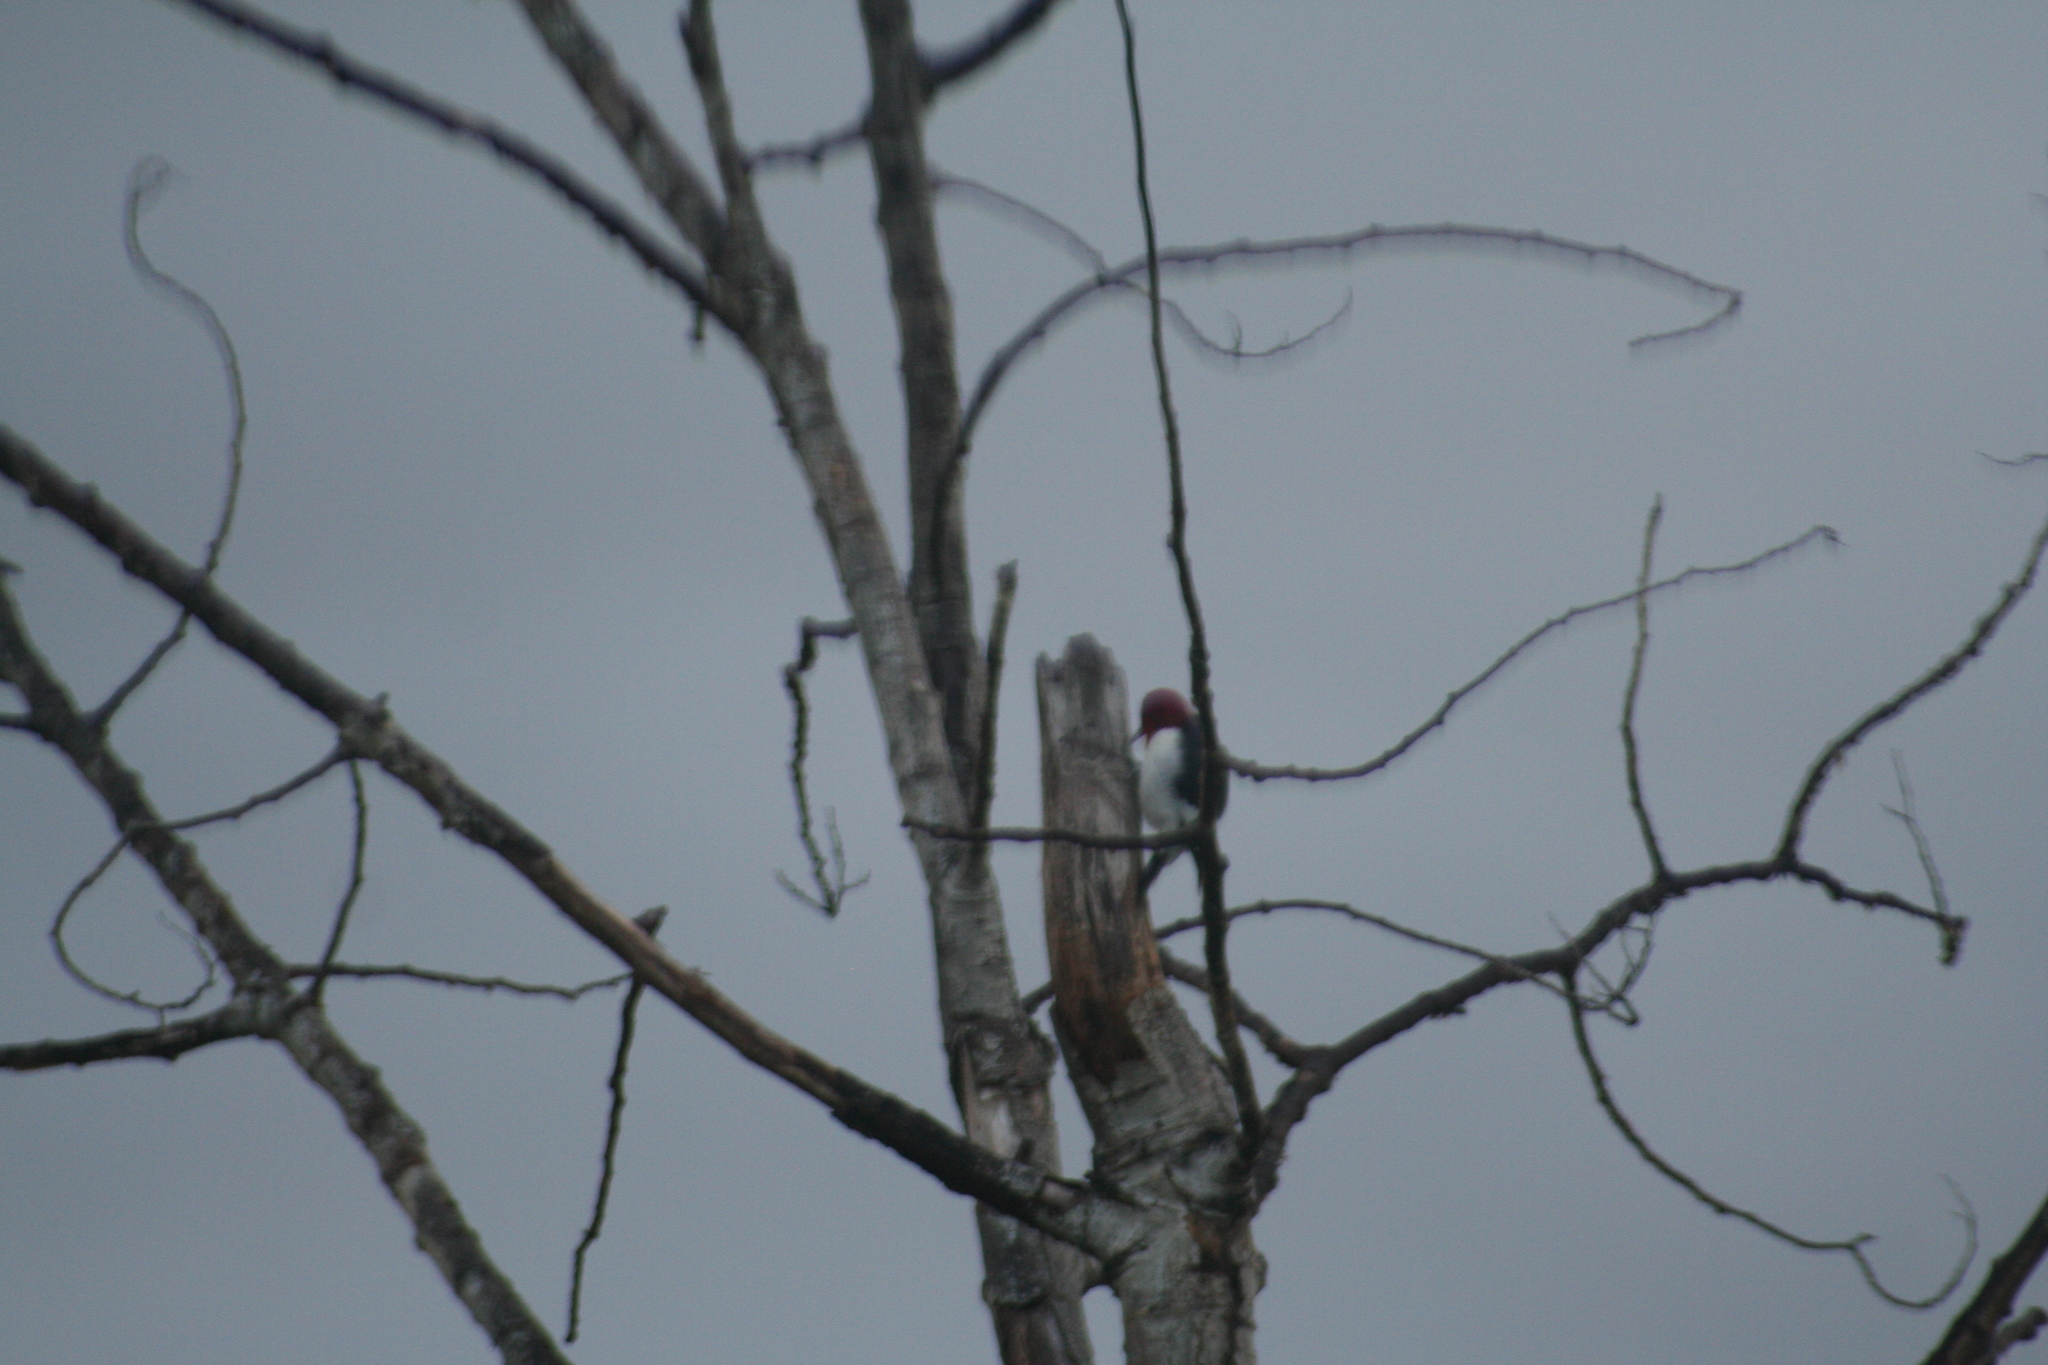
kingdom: Animalia
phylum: Chordata
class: Aves
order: Piciformes
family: Picidae
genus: Melanerpes
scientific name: Melanerpes erythrocephalus
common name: Red-headed woodpecker
